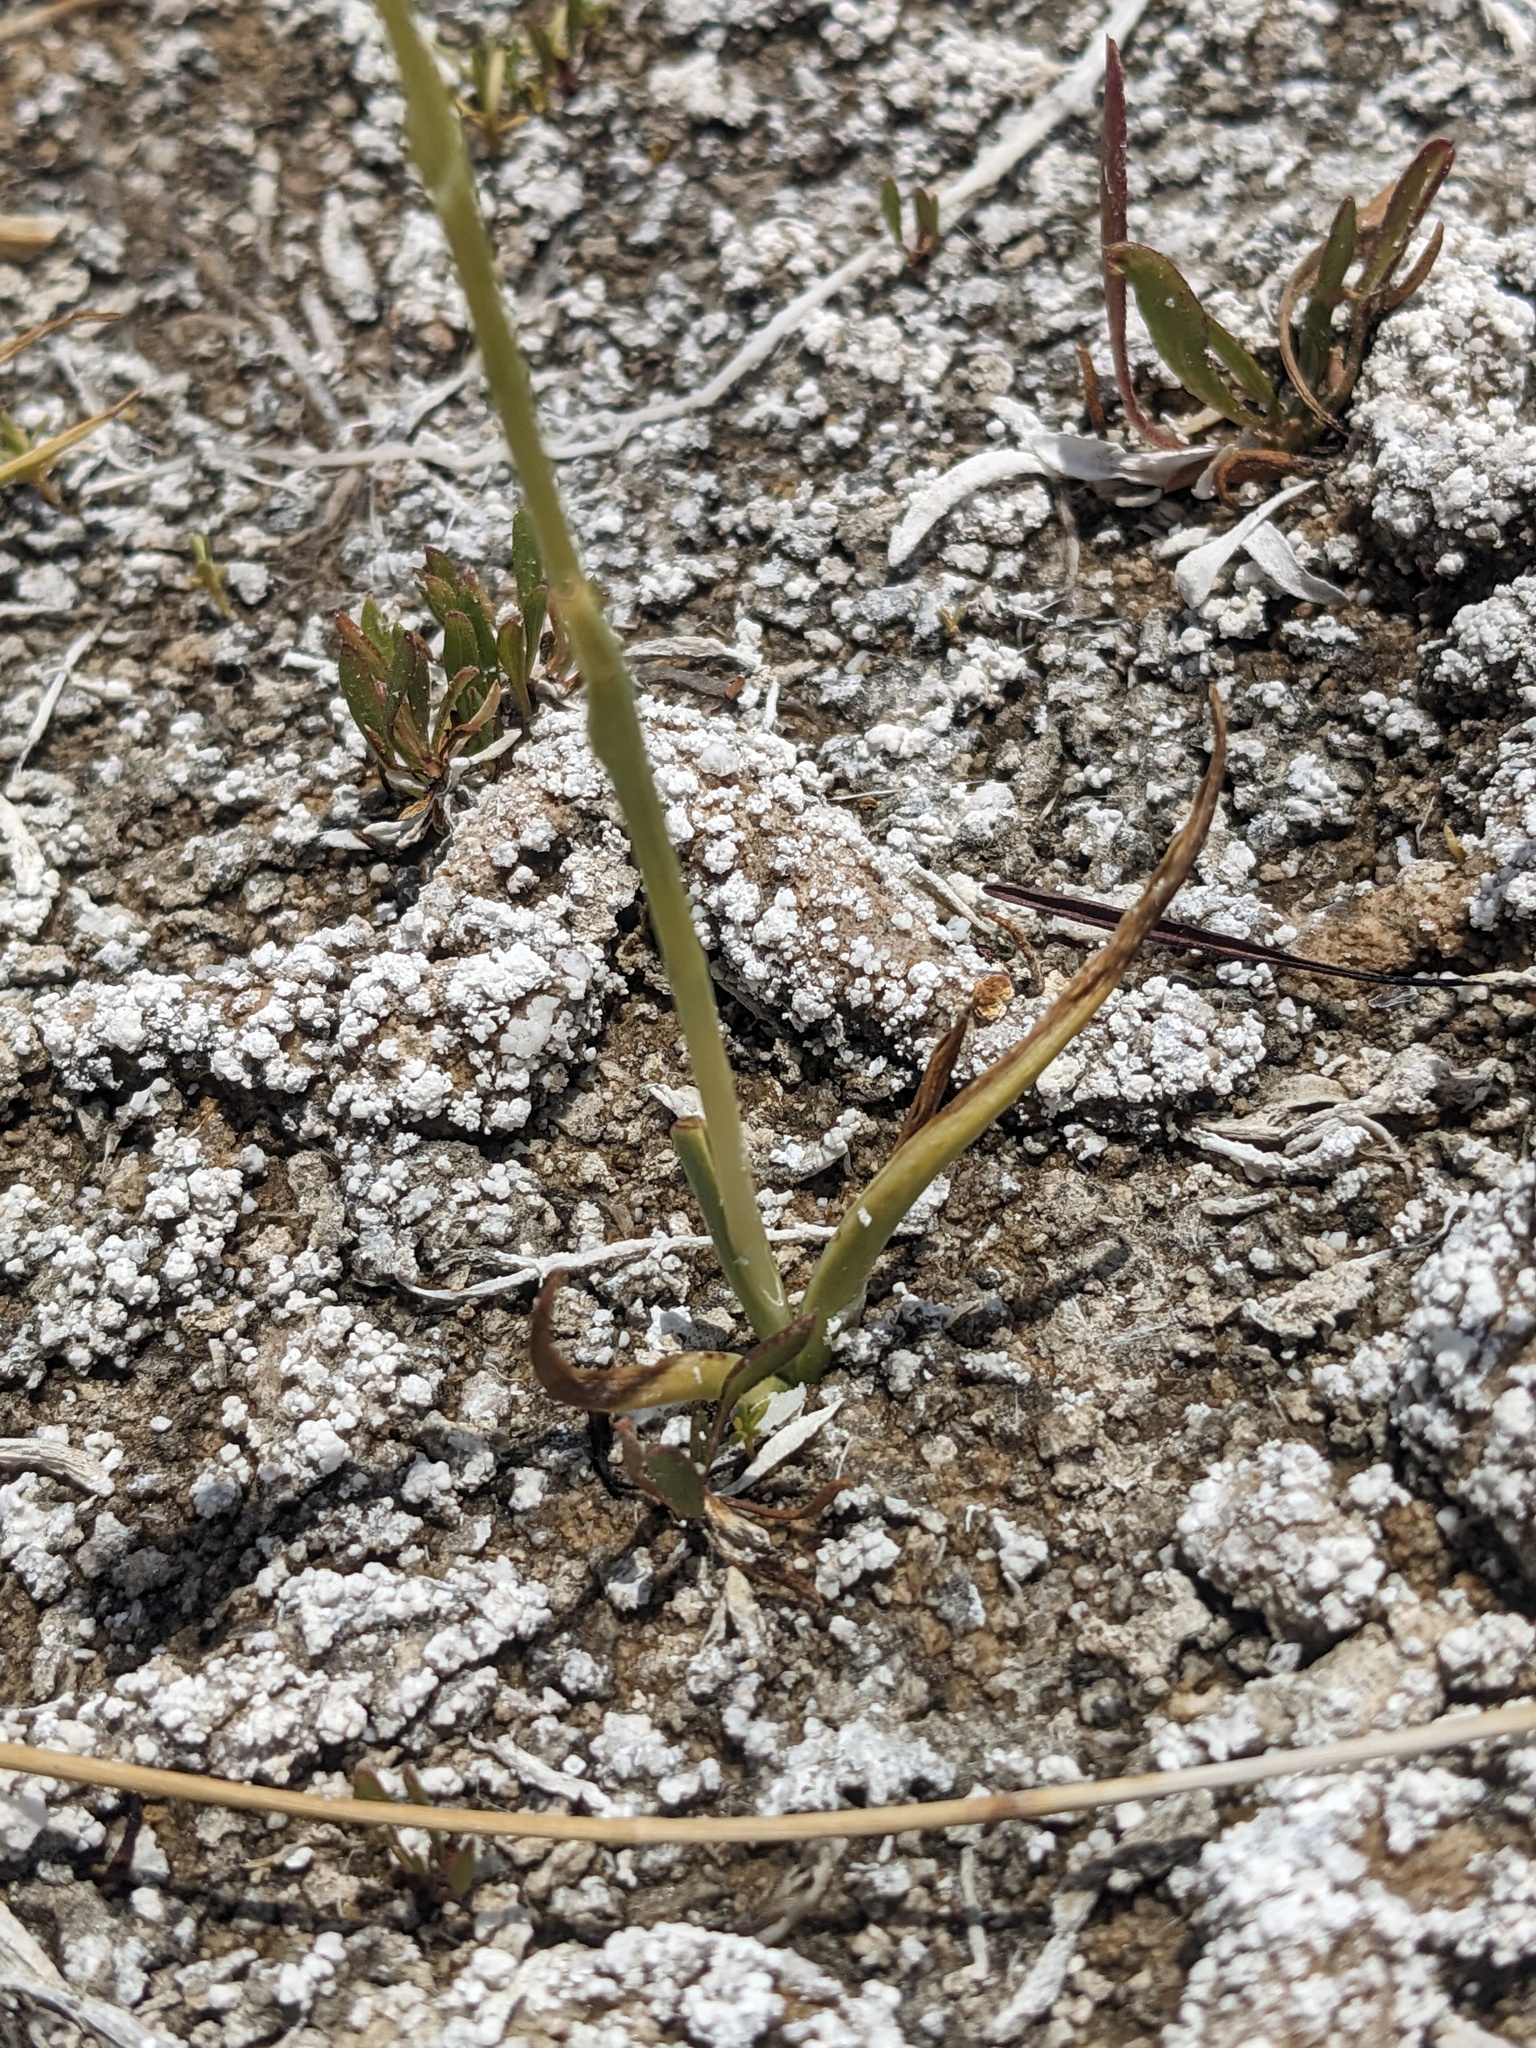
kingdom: Plantae
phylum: Tracheophyta
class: Liliopsida
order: Asparagales
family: Orchidaceae
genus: Spiranthes
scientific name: Spiranthes infernalis
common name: Ash meadows ladies’-tresses
